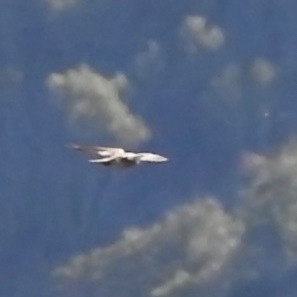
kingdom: Animalia
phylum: Chordata
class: Aves
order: Falconiformes
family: Falconidae
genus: Falco
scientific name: Falco peregrinus
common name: Peregrine falcon
